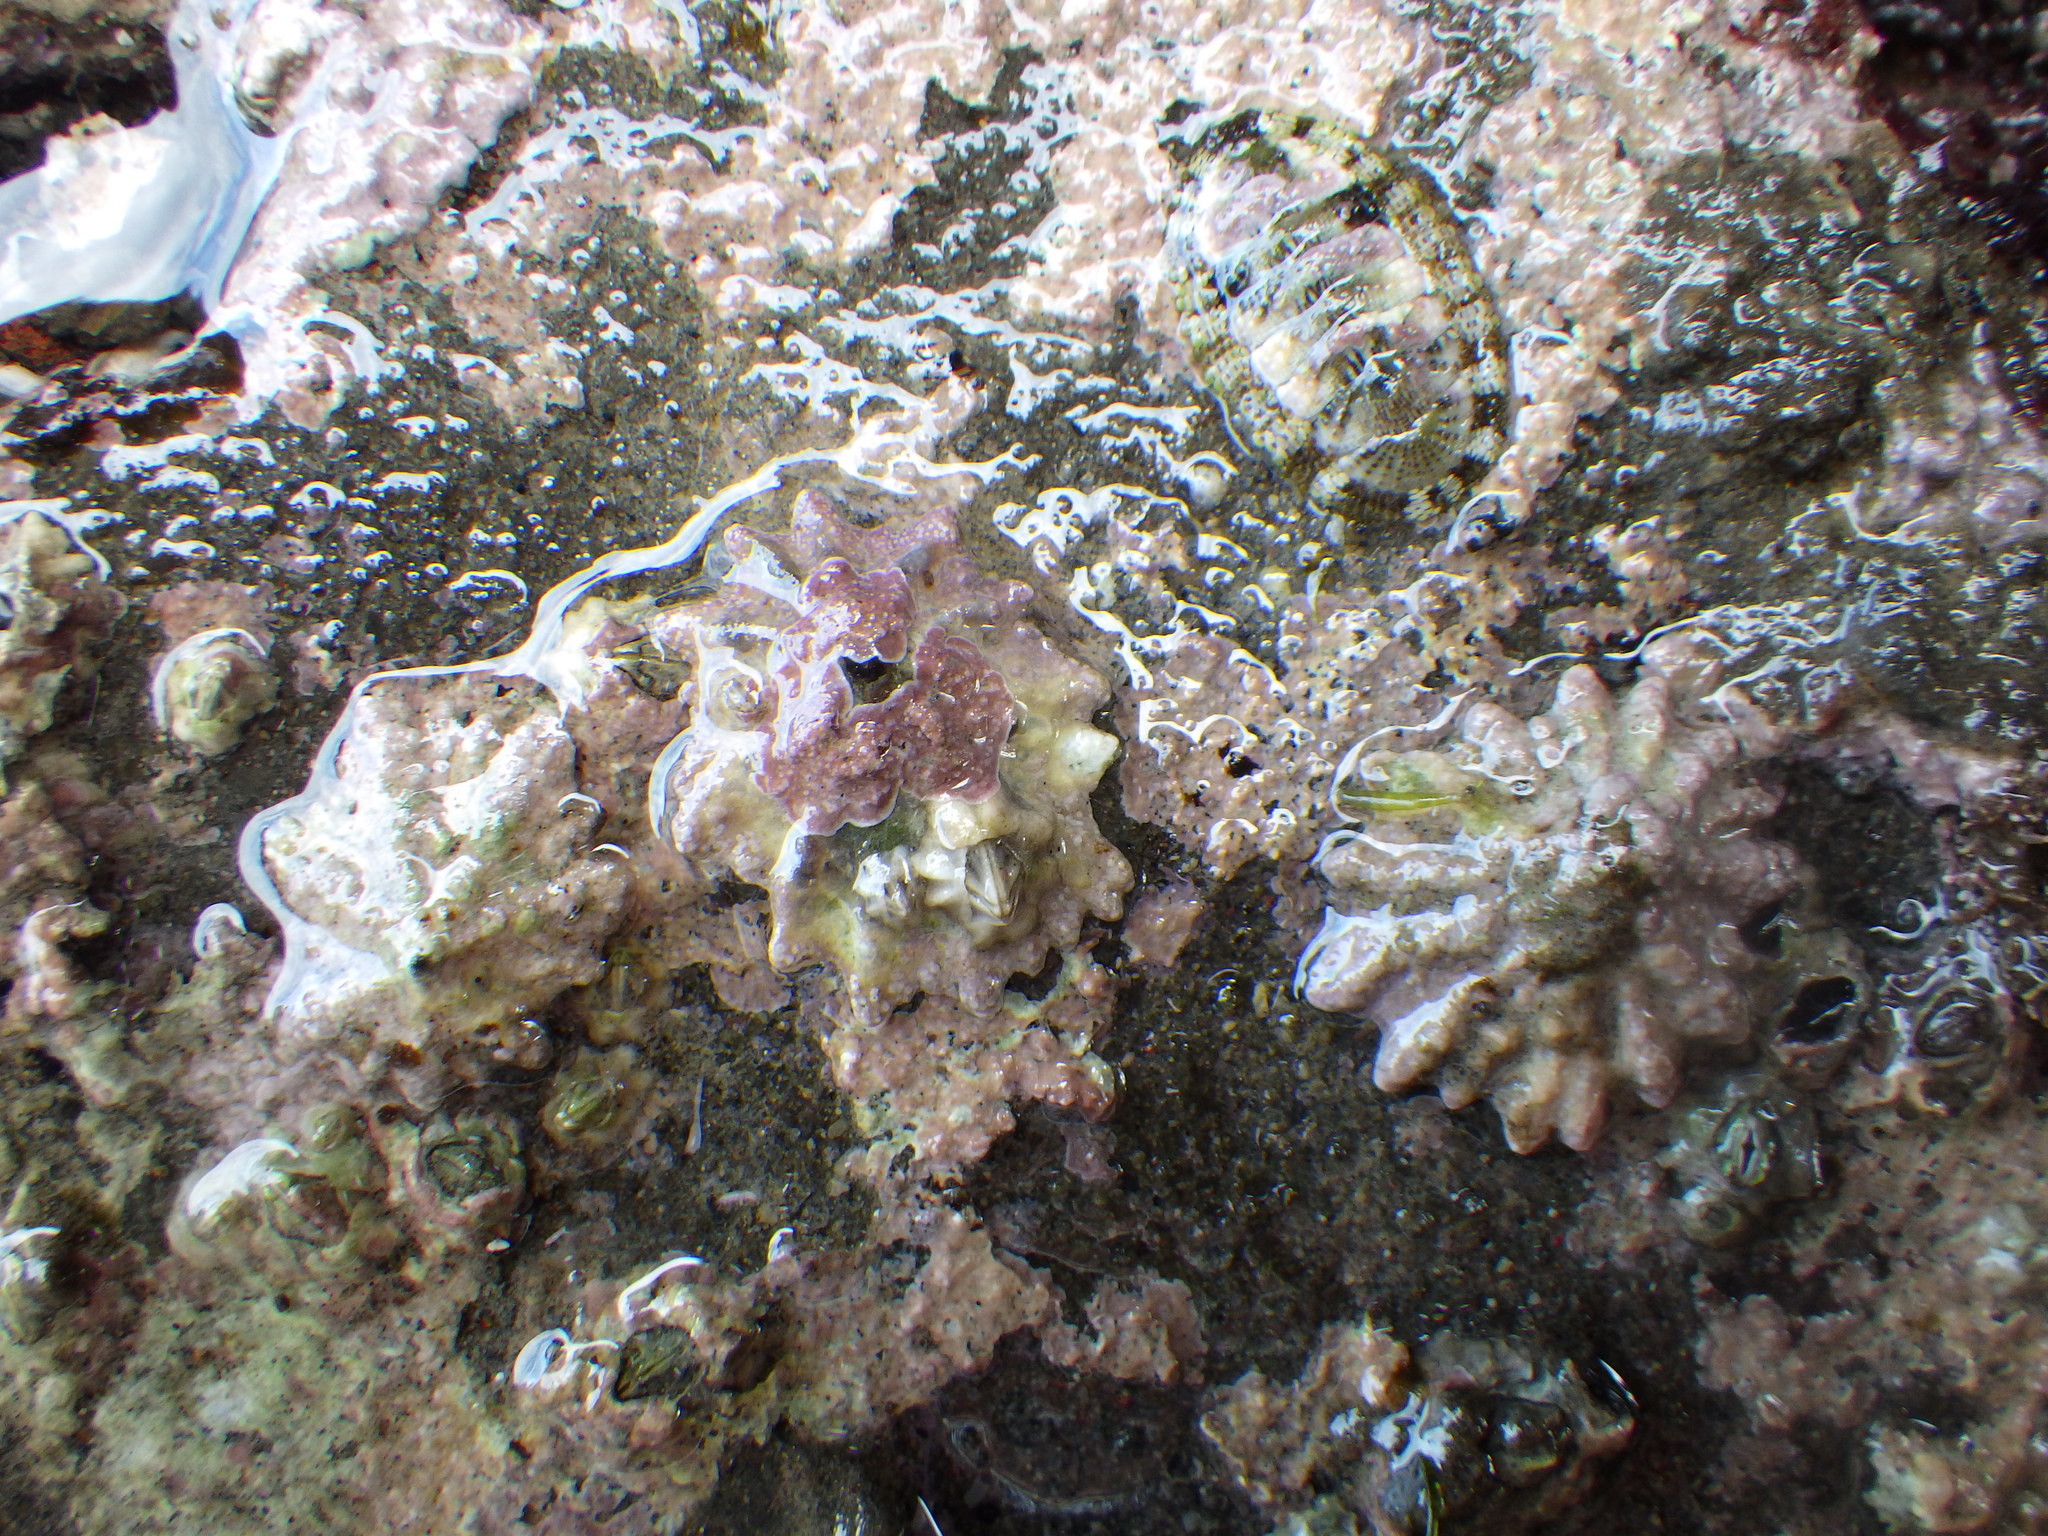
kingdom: Animalia
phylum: Mollusca
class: Gastropoda
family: Lottiidae
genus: Patelloida
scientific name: Patelloida corticata
